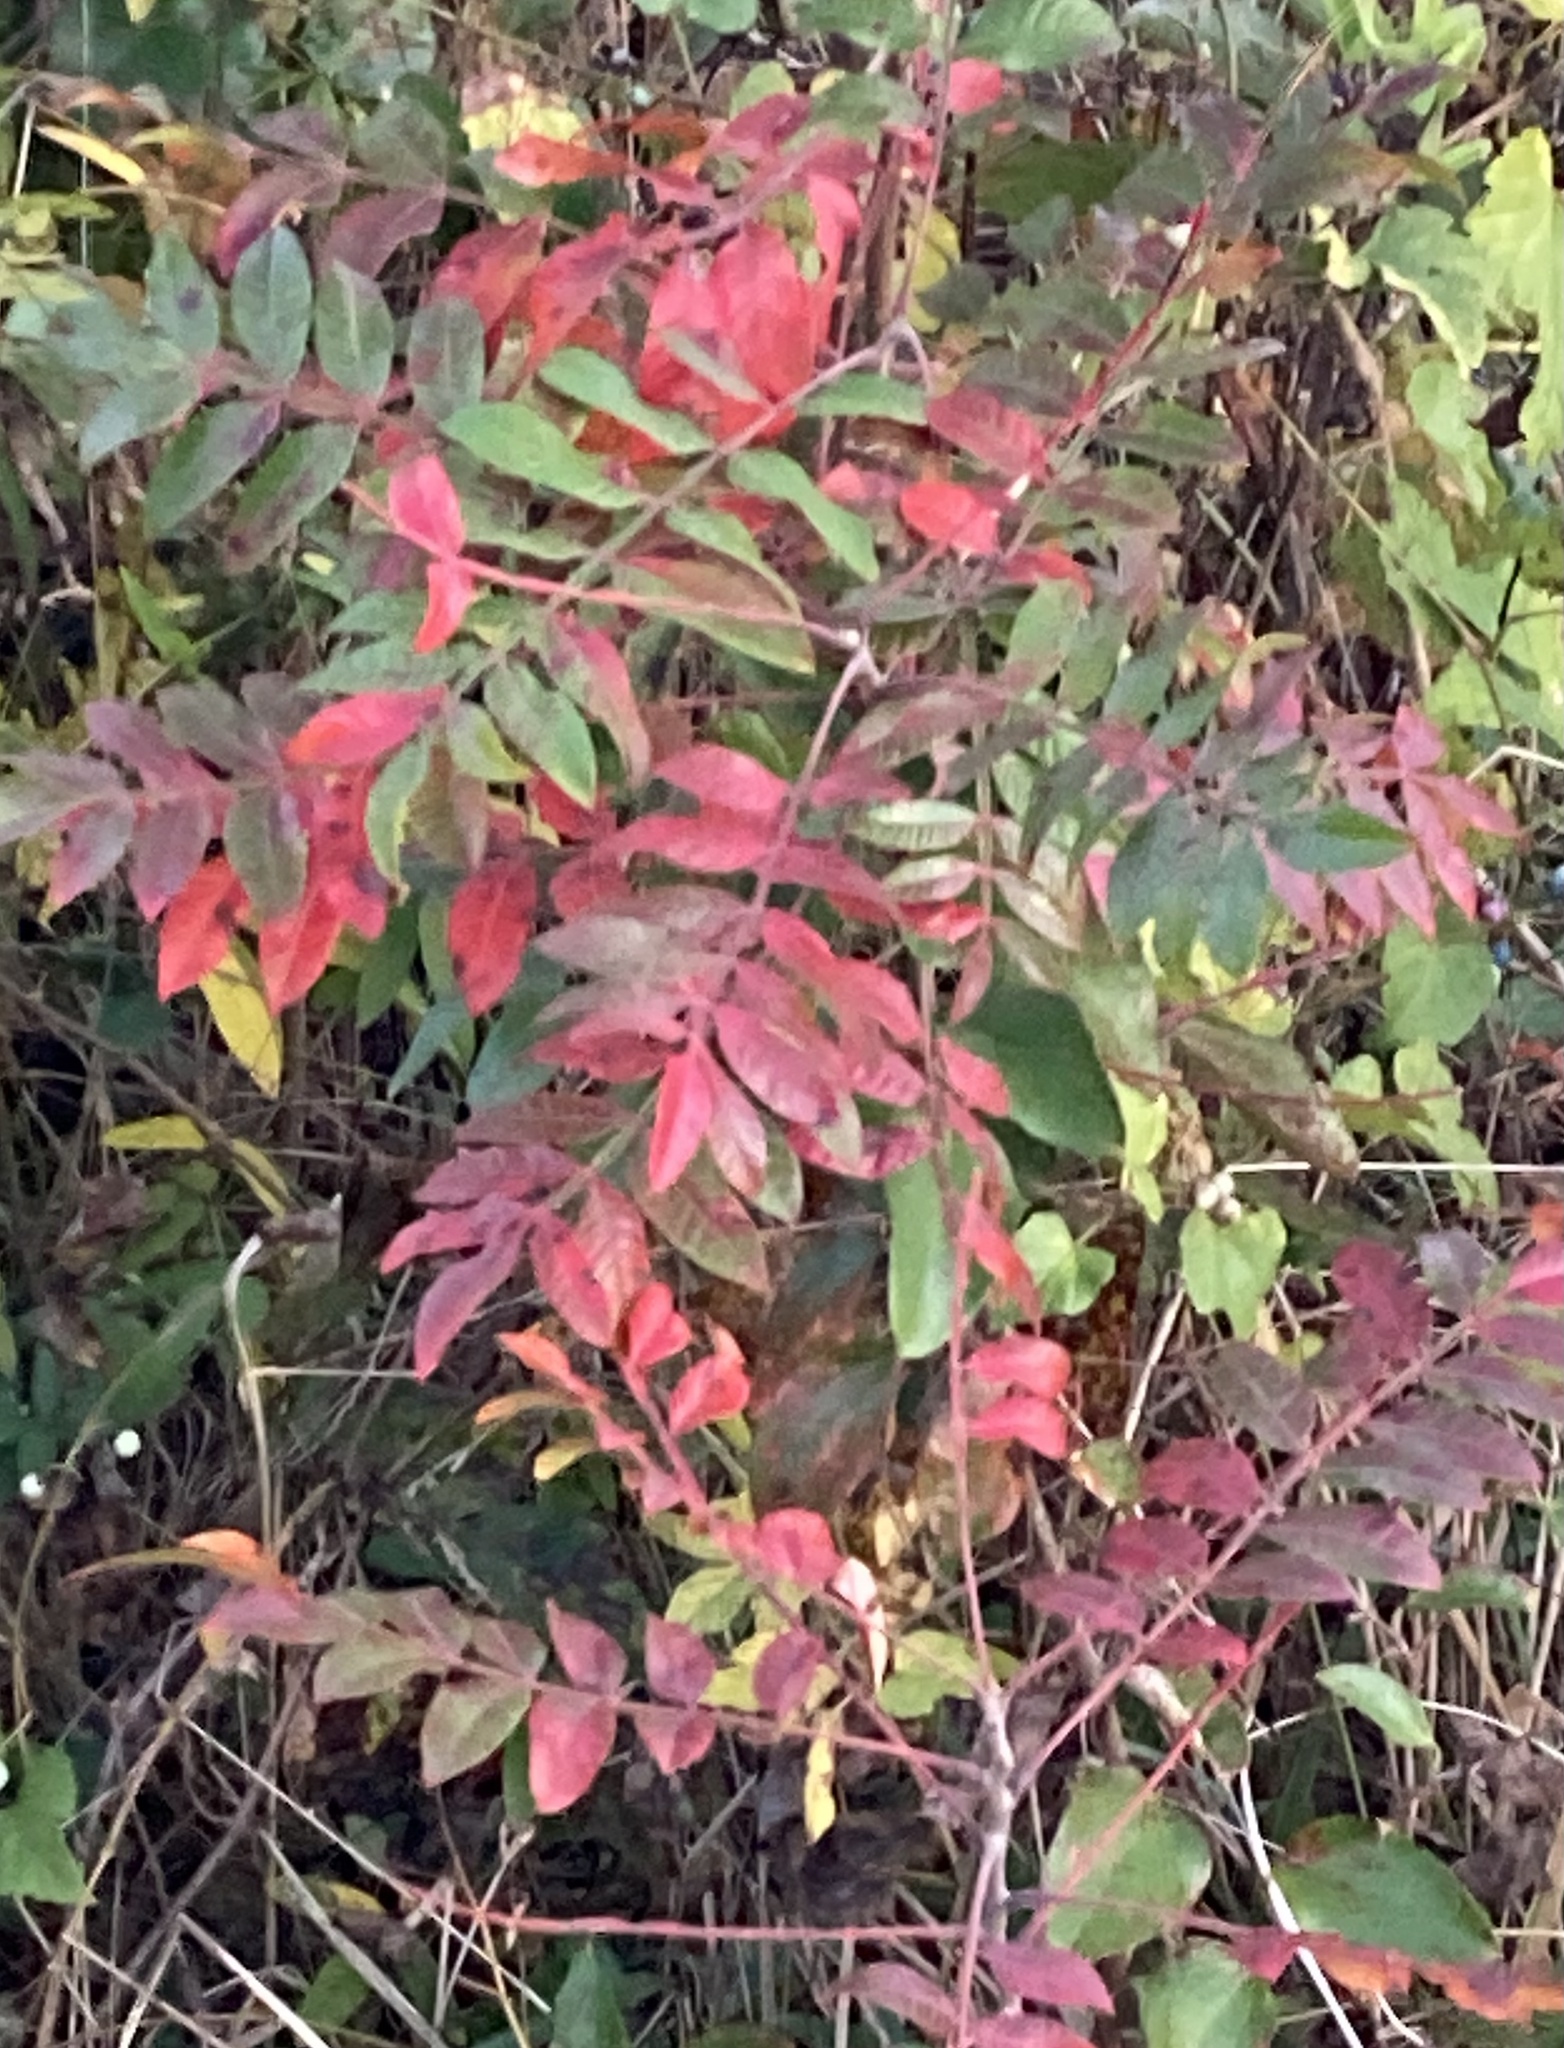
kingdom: Plantae
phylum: Tracheophyta
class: Magnoliopsida
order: Sapindales
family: Anacardiaceae
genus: Rhus
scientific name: Rhus copallina
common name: Shining sumac
